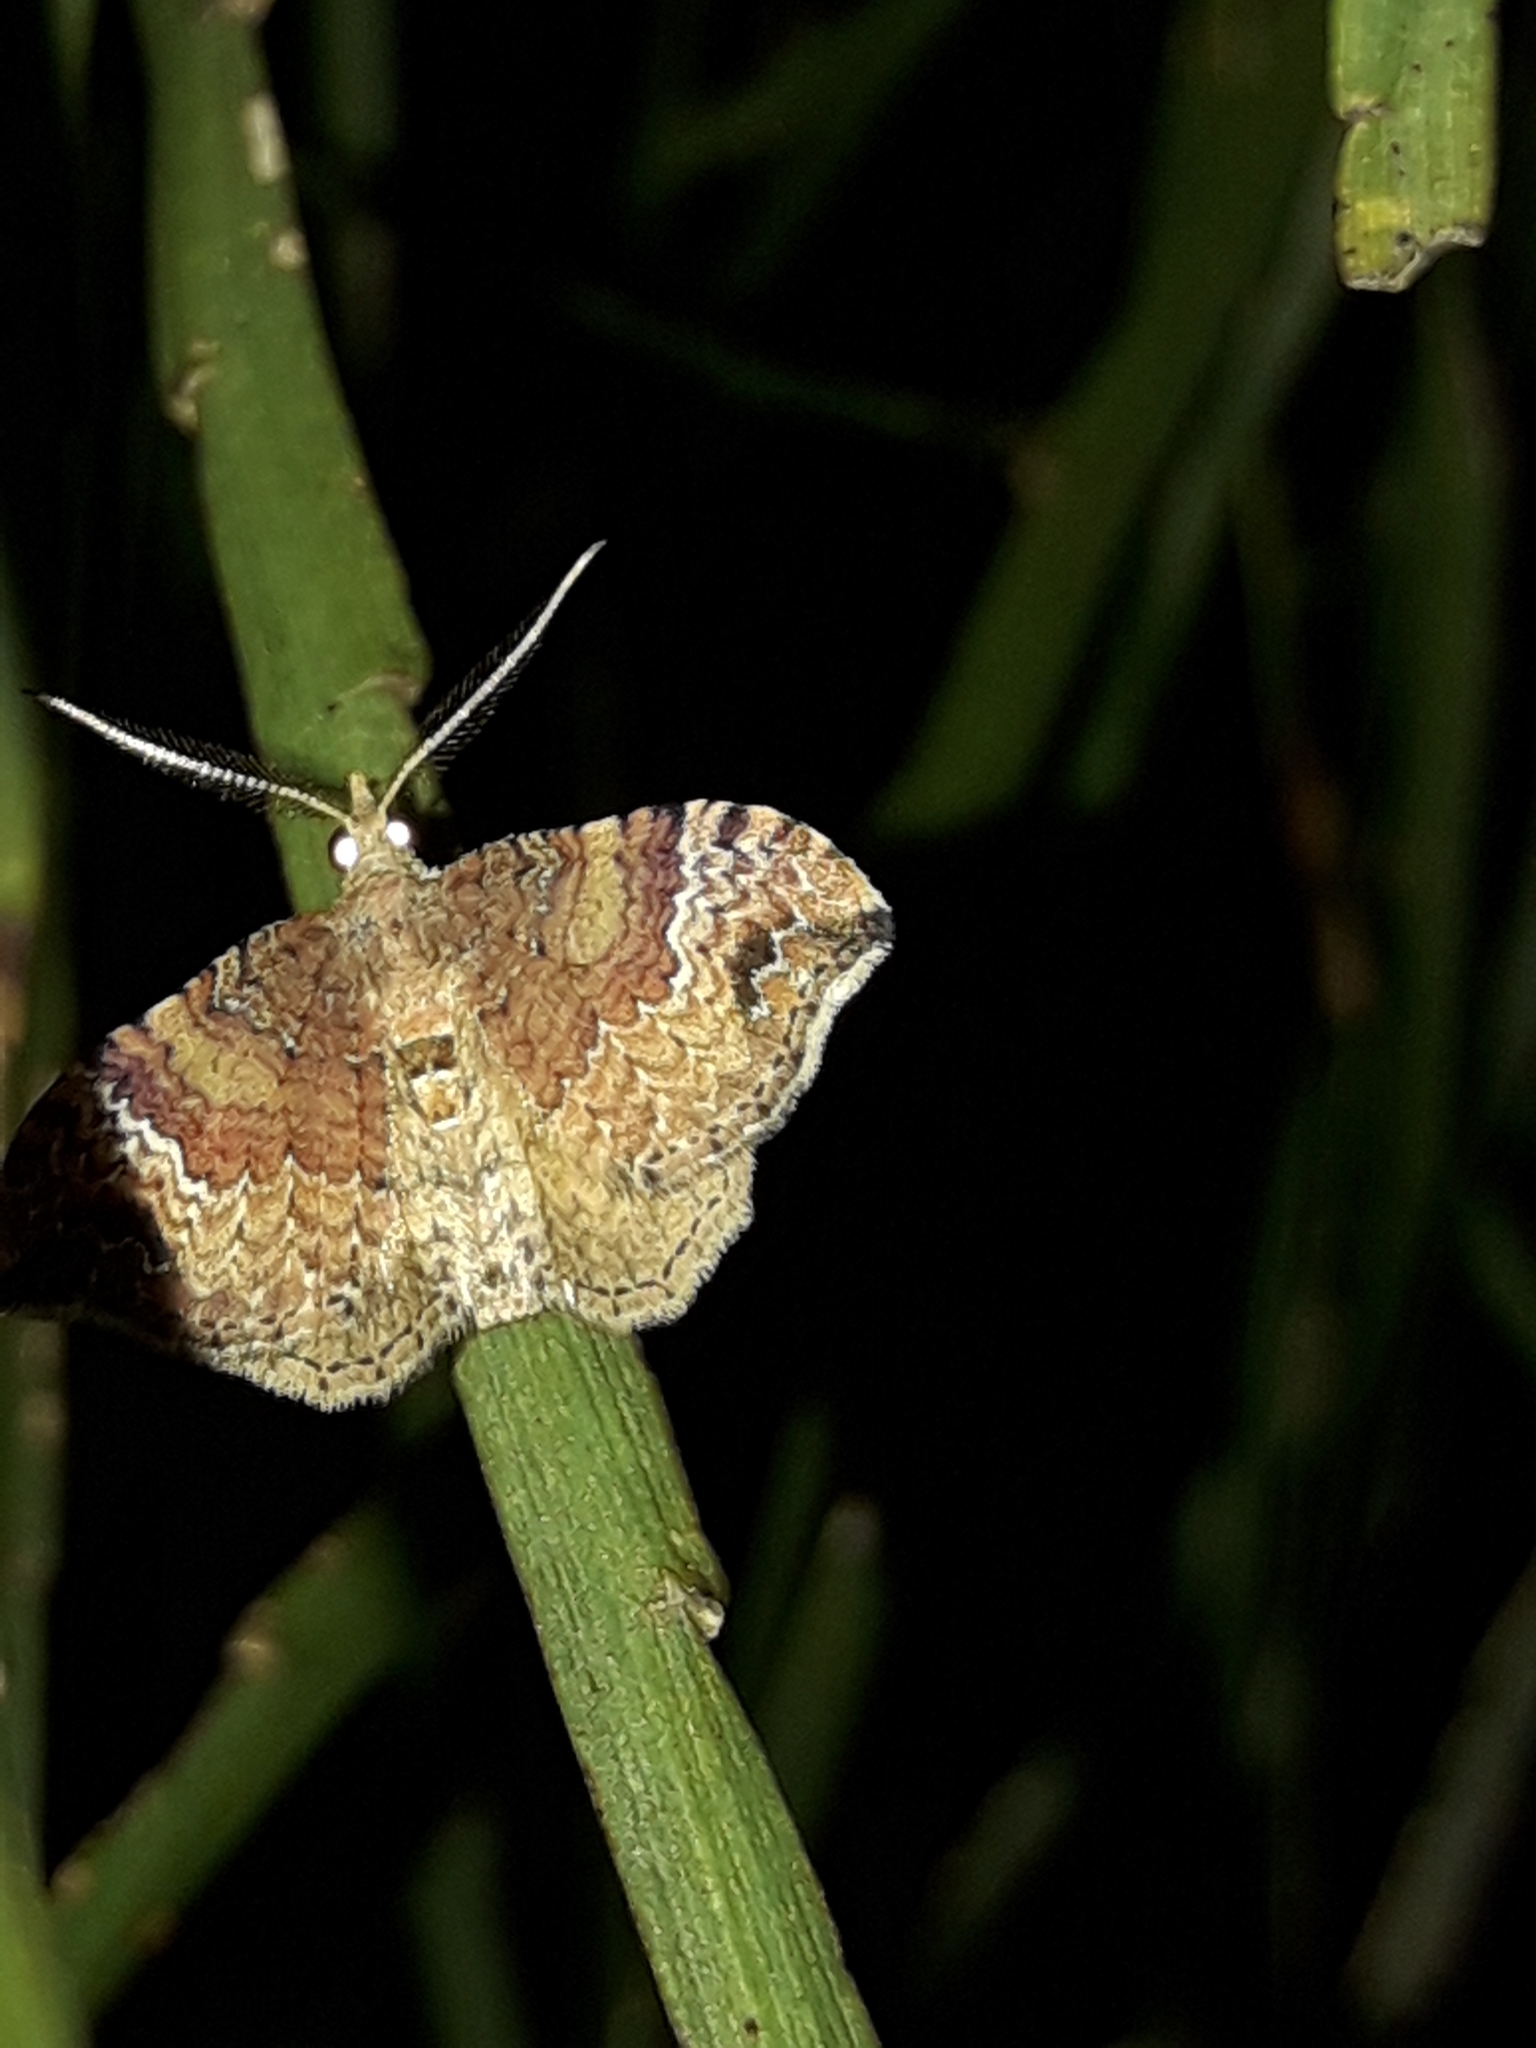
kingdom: Animalia
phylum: Arthropoda
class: Insecta
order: Lepidoptera
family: Geometridae
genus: Homodotis
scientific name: Homodotis megaspilata
